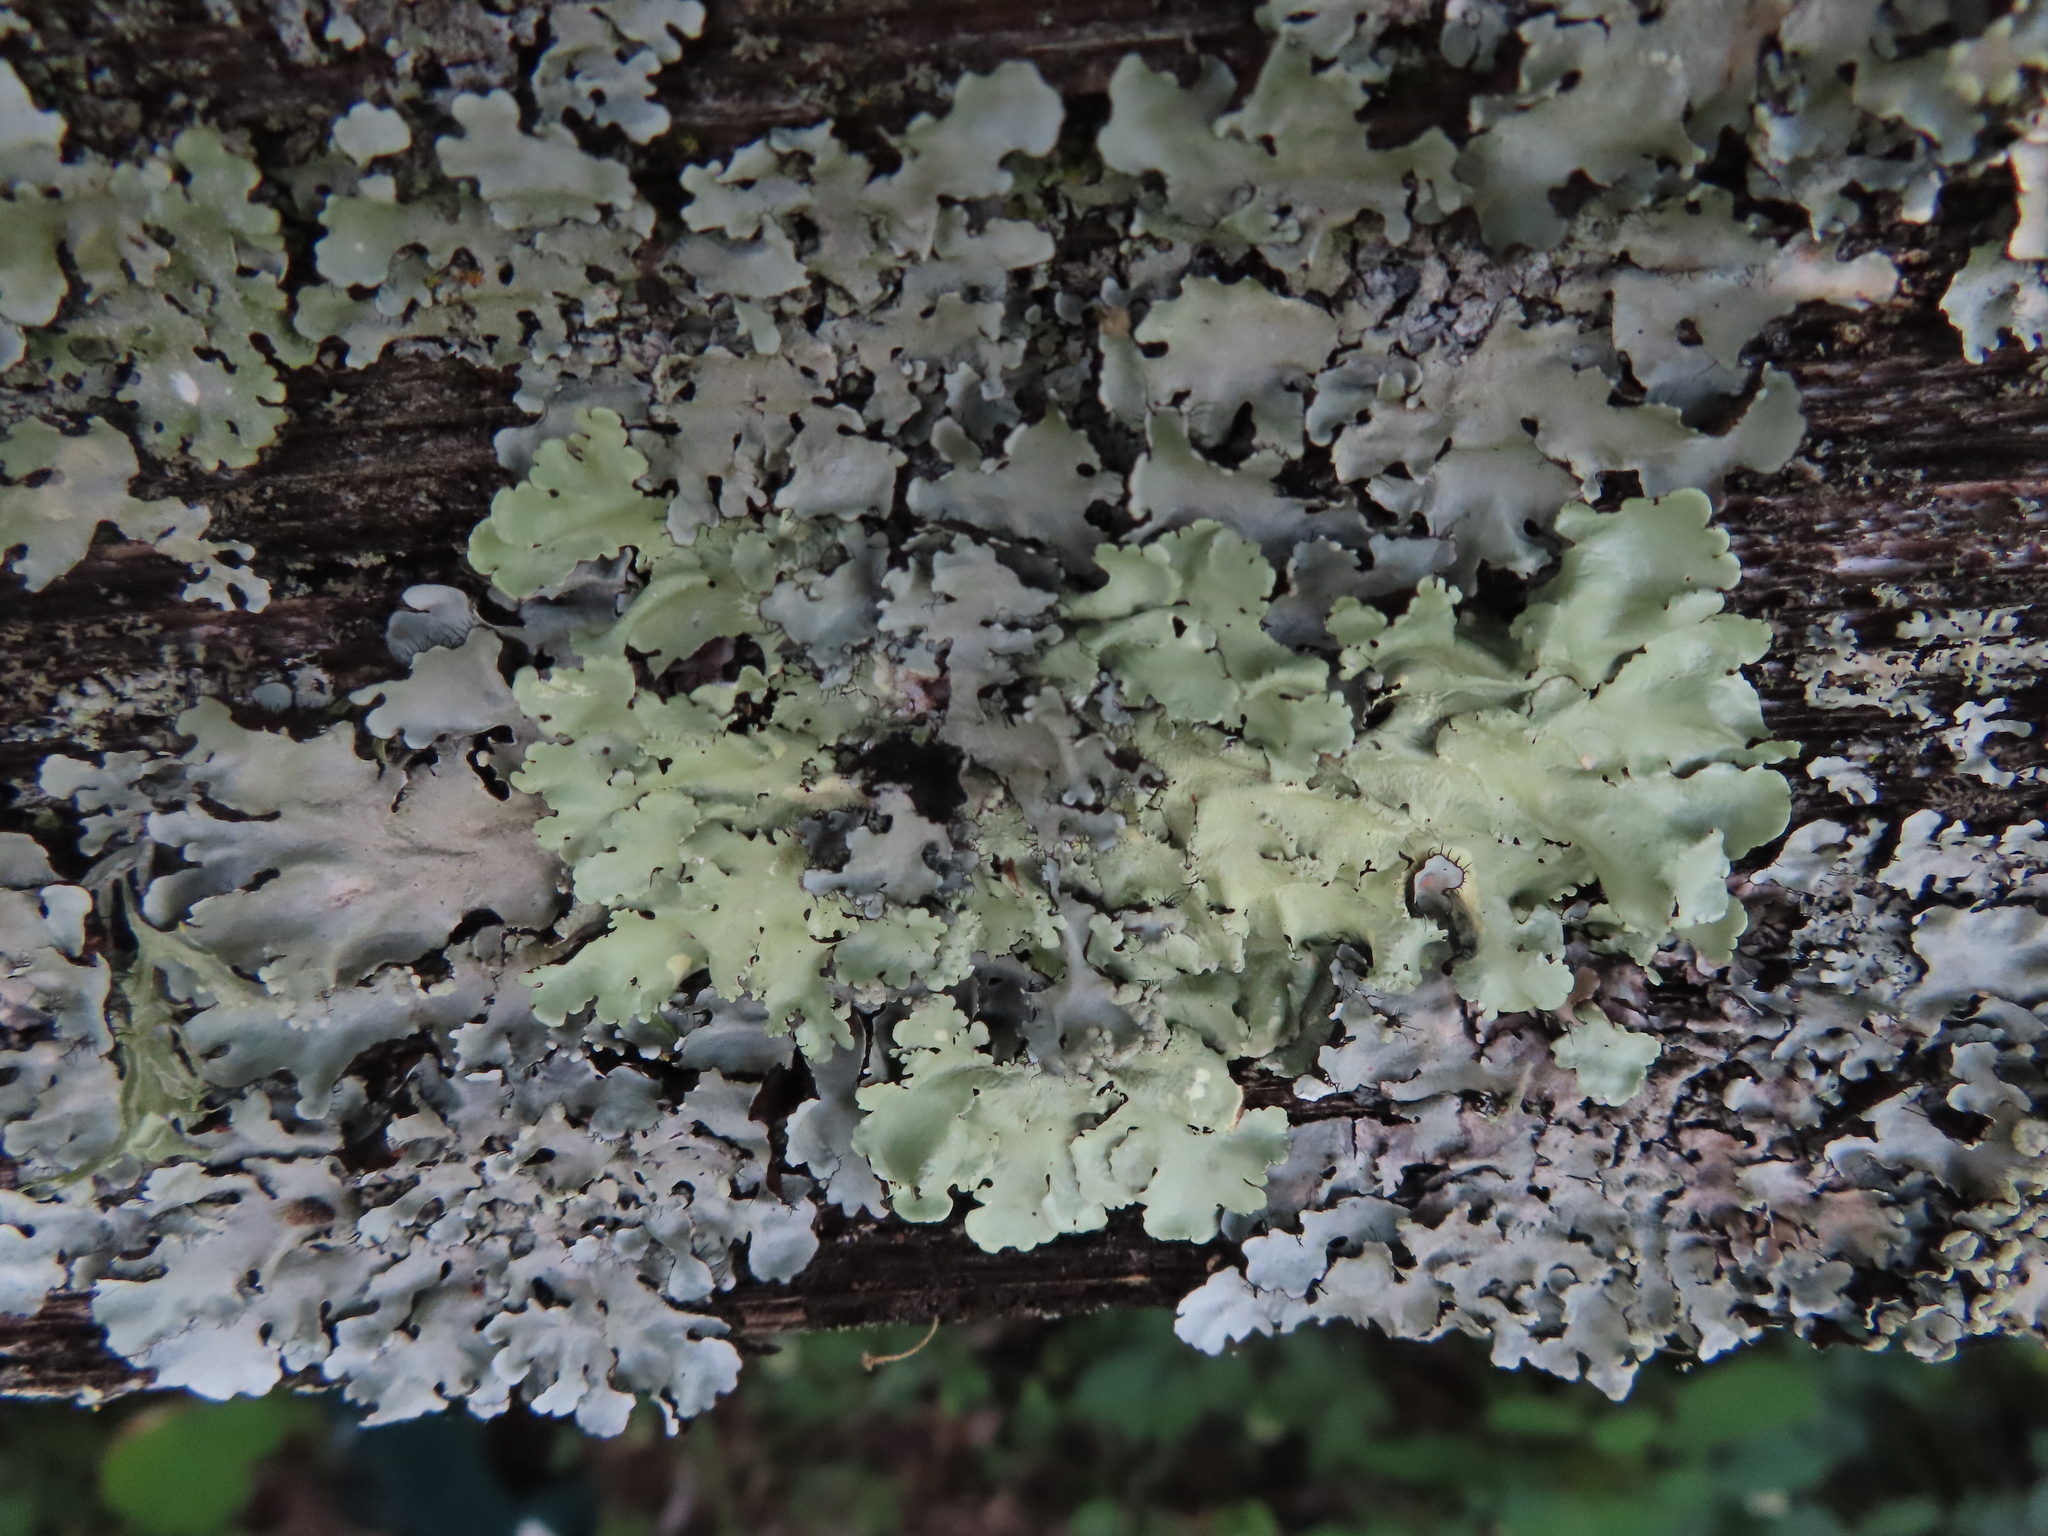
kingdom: Fungi
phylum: Ascomycota
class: Lecanoromycetes
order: Lecanorales
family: Parmeliaceae
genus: Flavoparmelia
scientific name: Flavoparmelia caperata
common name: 40-mile per hour lichen
